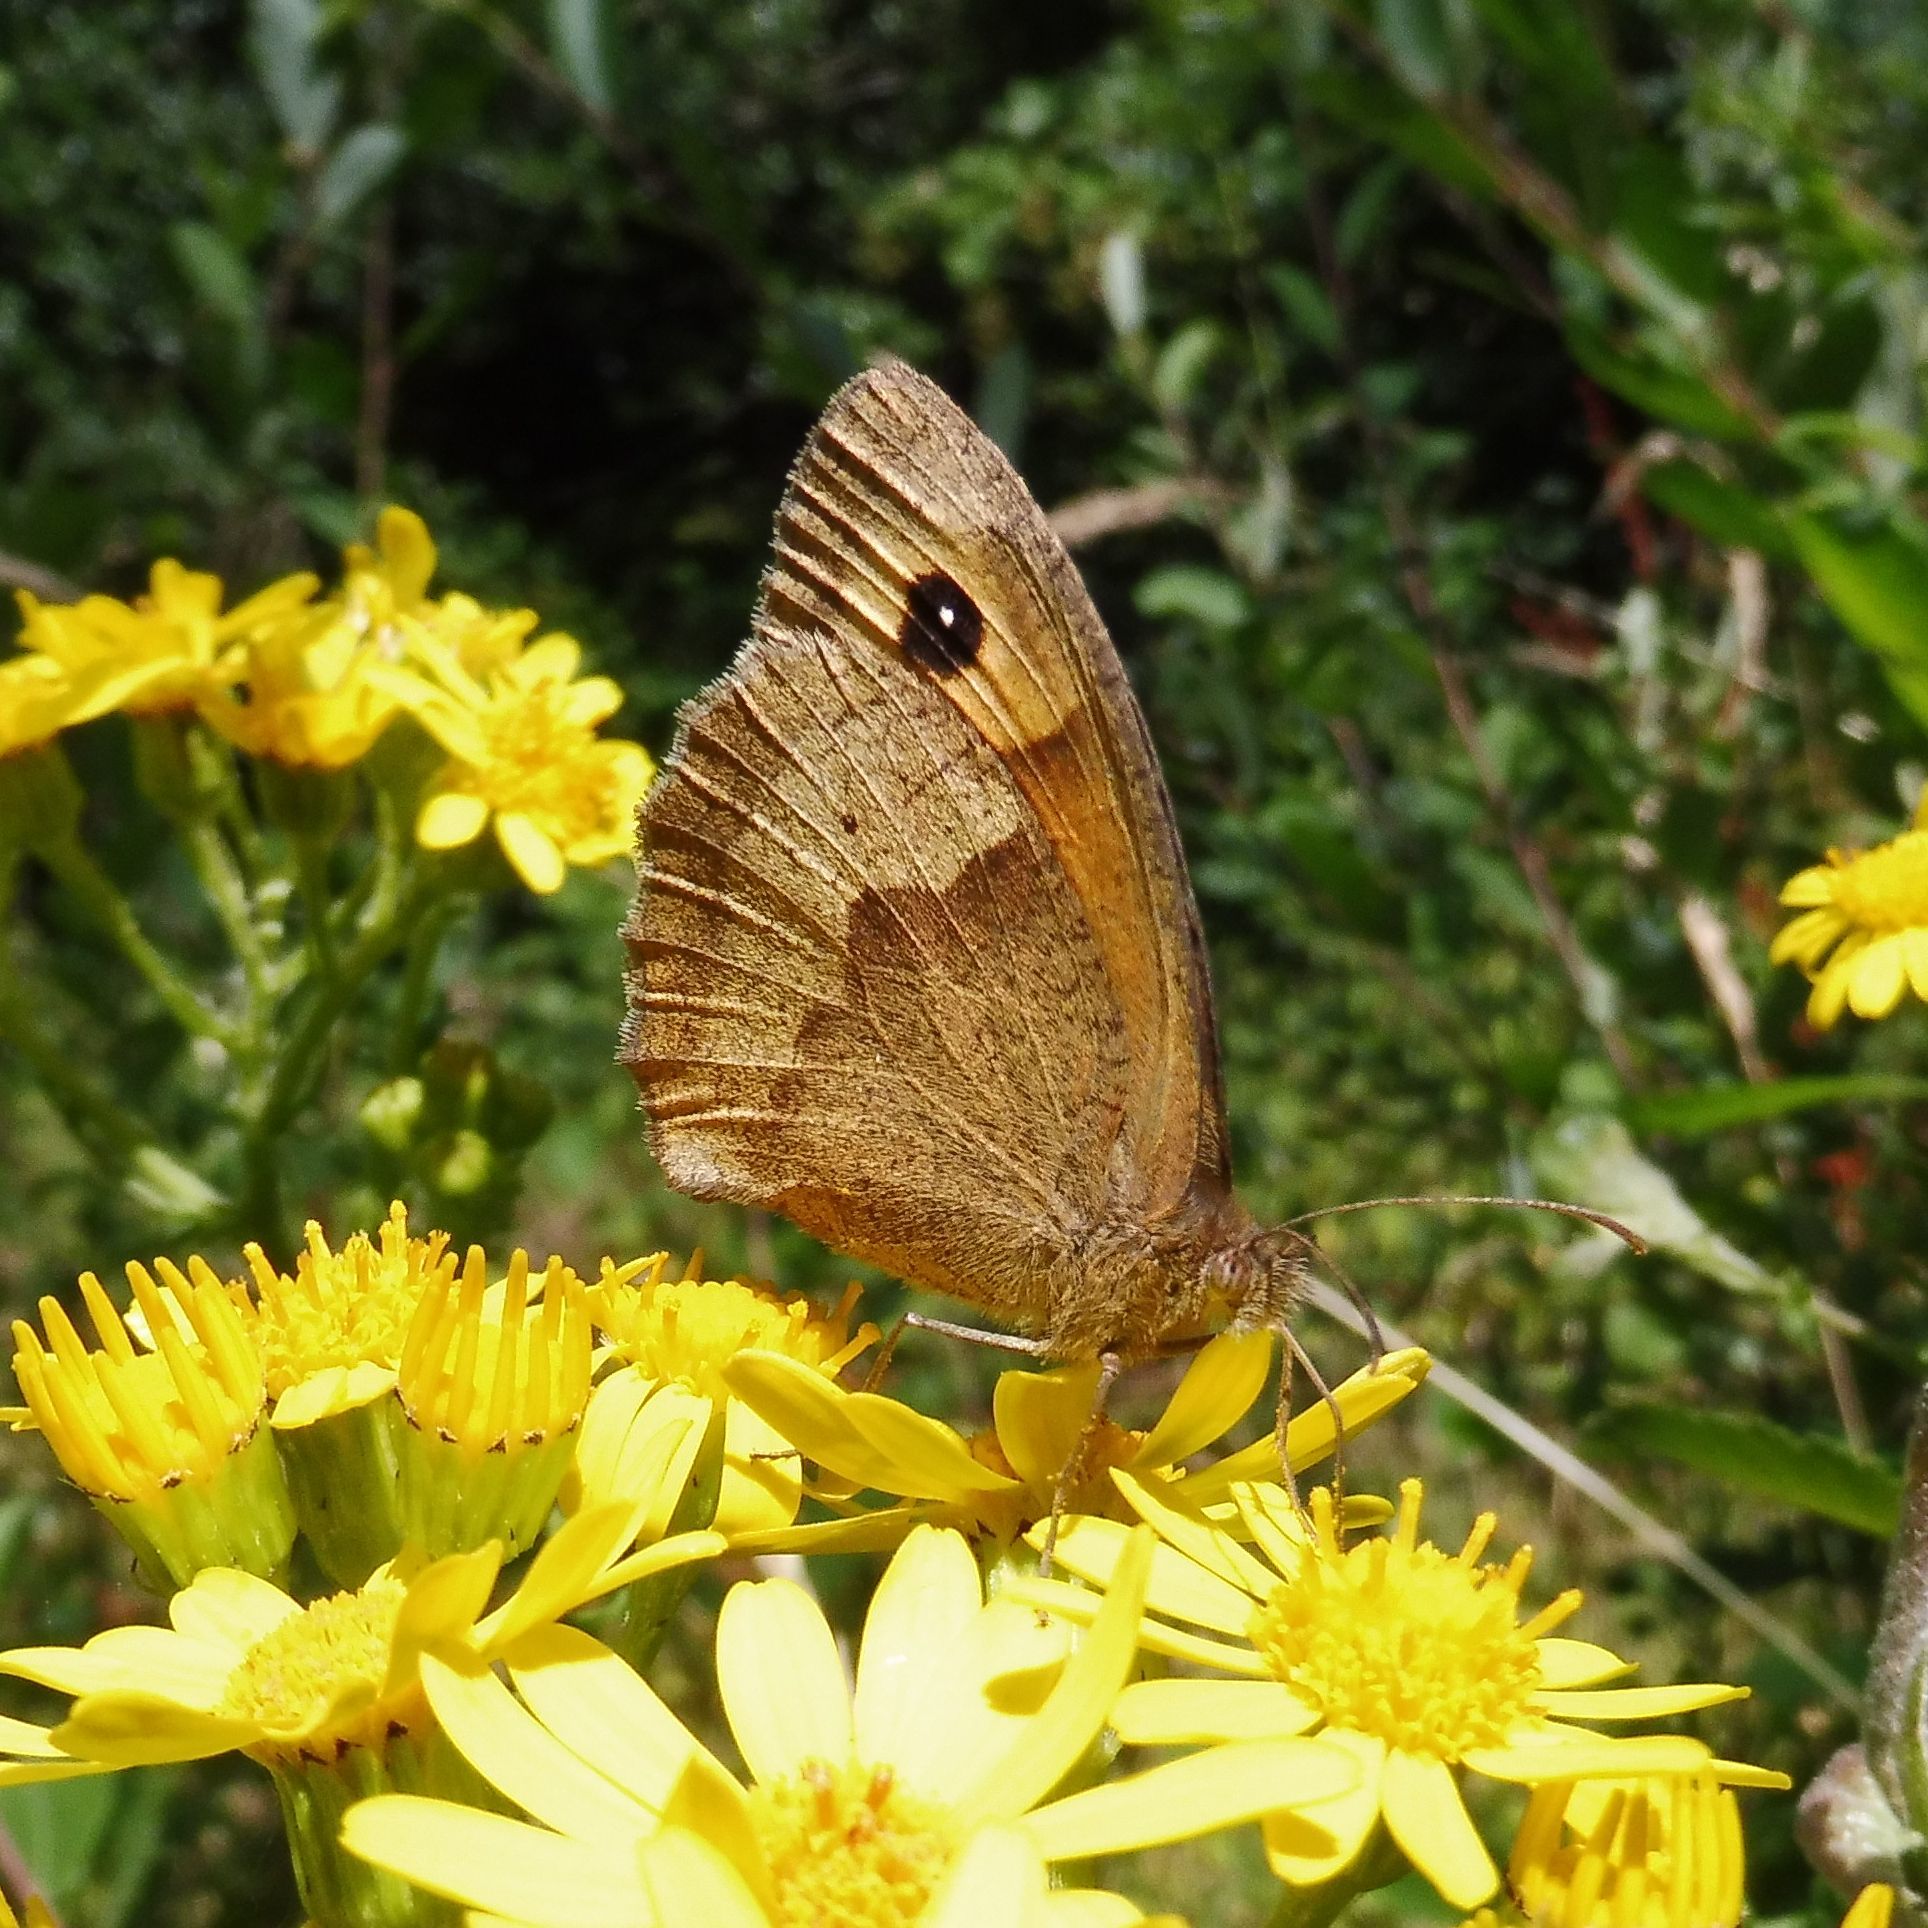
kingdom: Animalia
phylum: Arthropoda
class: Insecta
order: Lepidoptera
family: Nymphalidae
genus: Maniola
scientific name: Maniola jurtina
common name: Meadow brown
